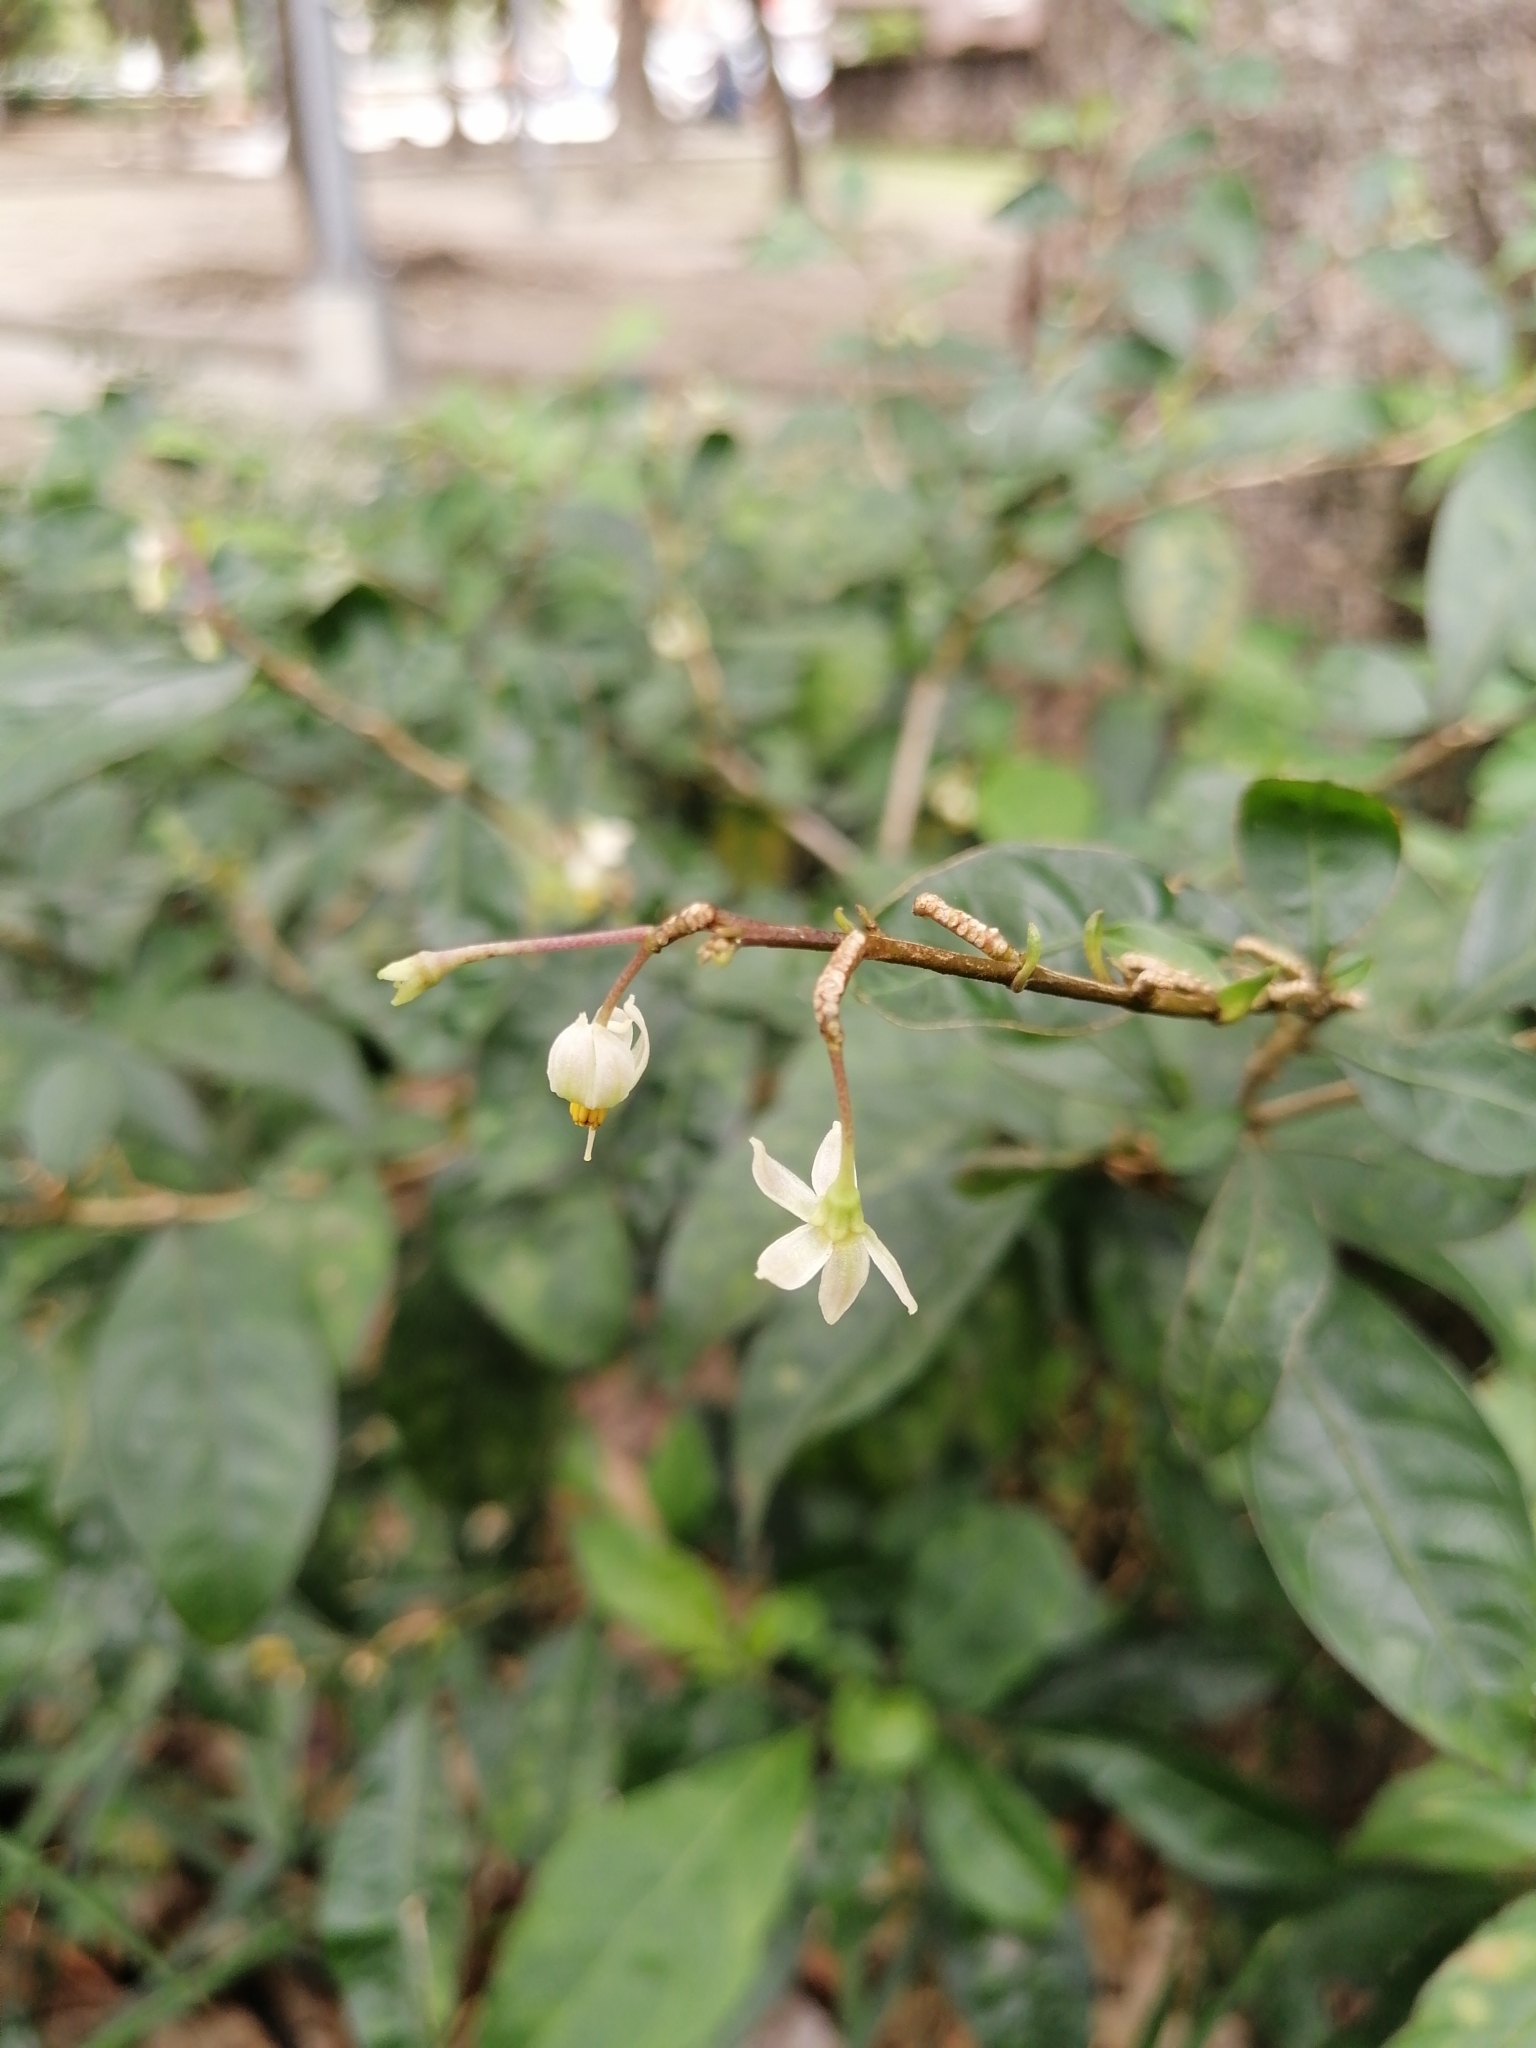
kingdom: Plantae
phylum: Tracheophyta
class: Magnoliopsida
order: Caryophyllales
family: Phytolaccaceae
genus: Rivina
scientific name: Rivina humilis
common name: Rougeplant
